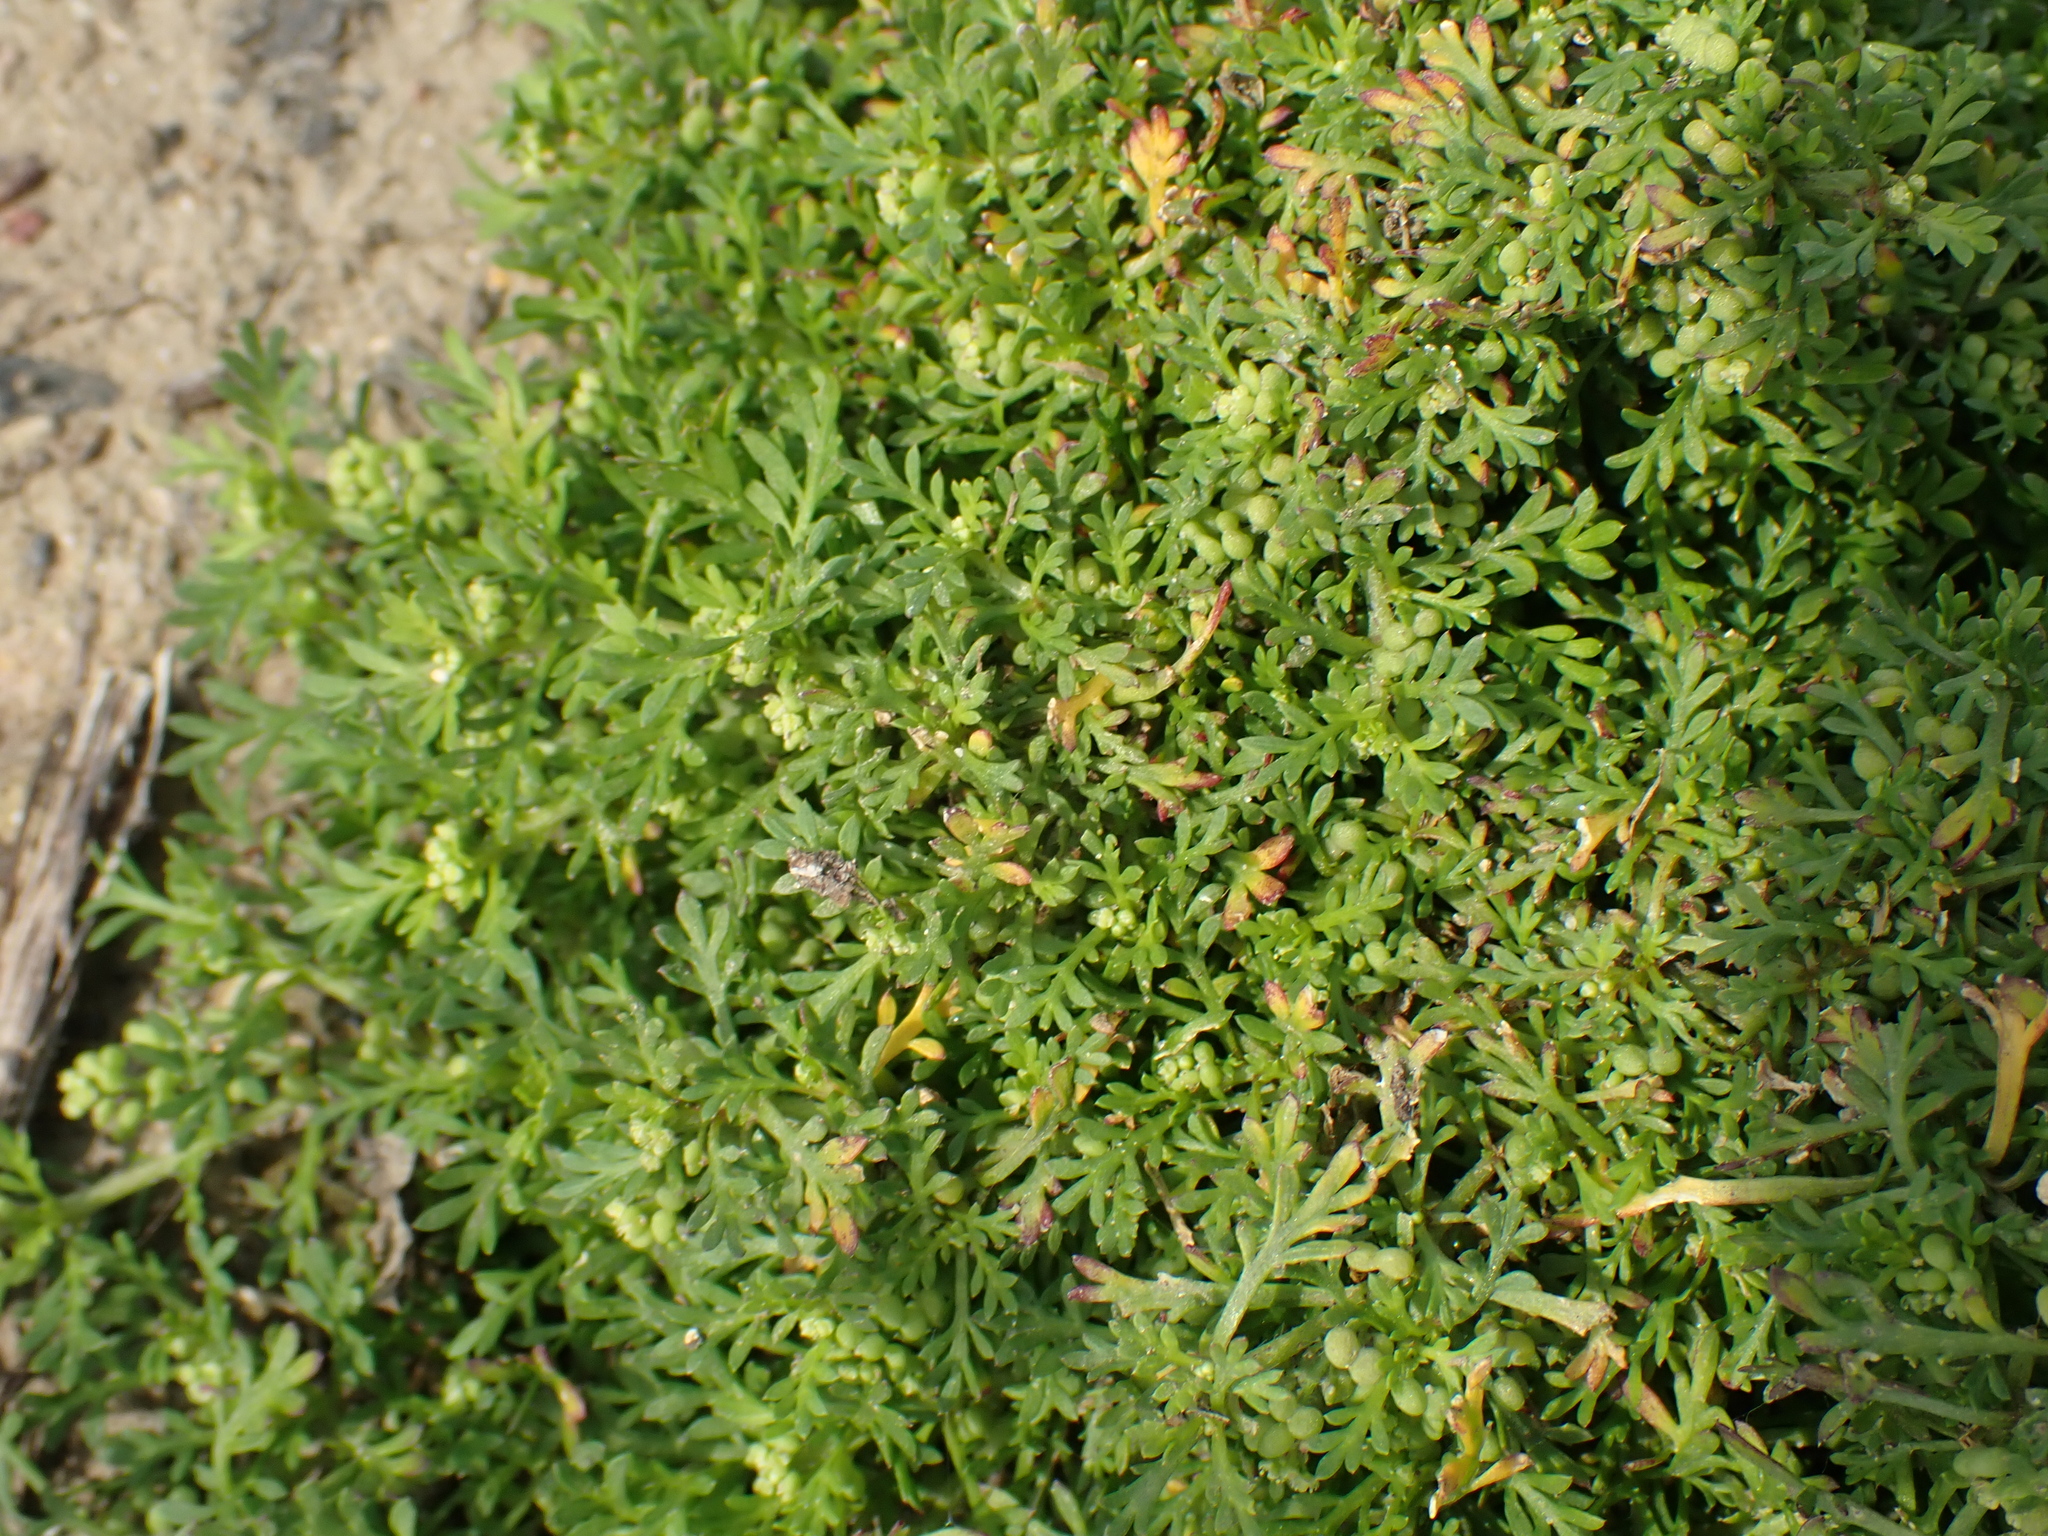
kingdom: Plantae
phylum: Tracheophyta
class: Magnoliopsida
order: Brassicales
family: Brassicaceae
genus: Lepidium
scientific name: Lepidium didymum
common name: Lesser swinecress
